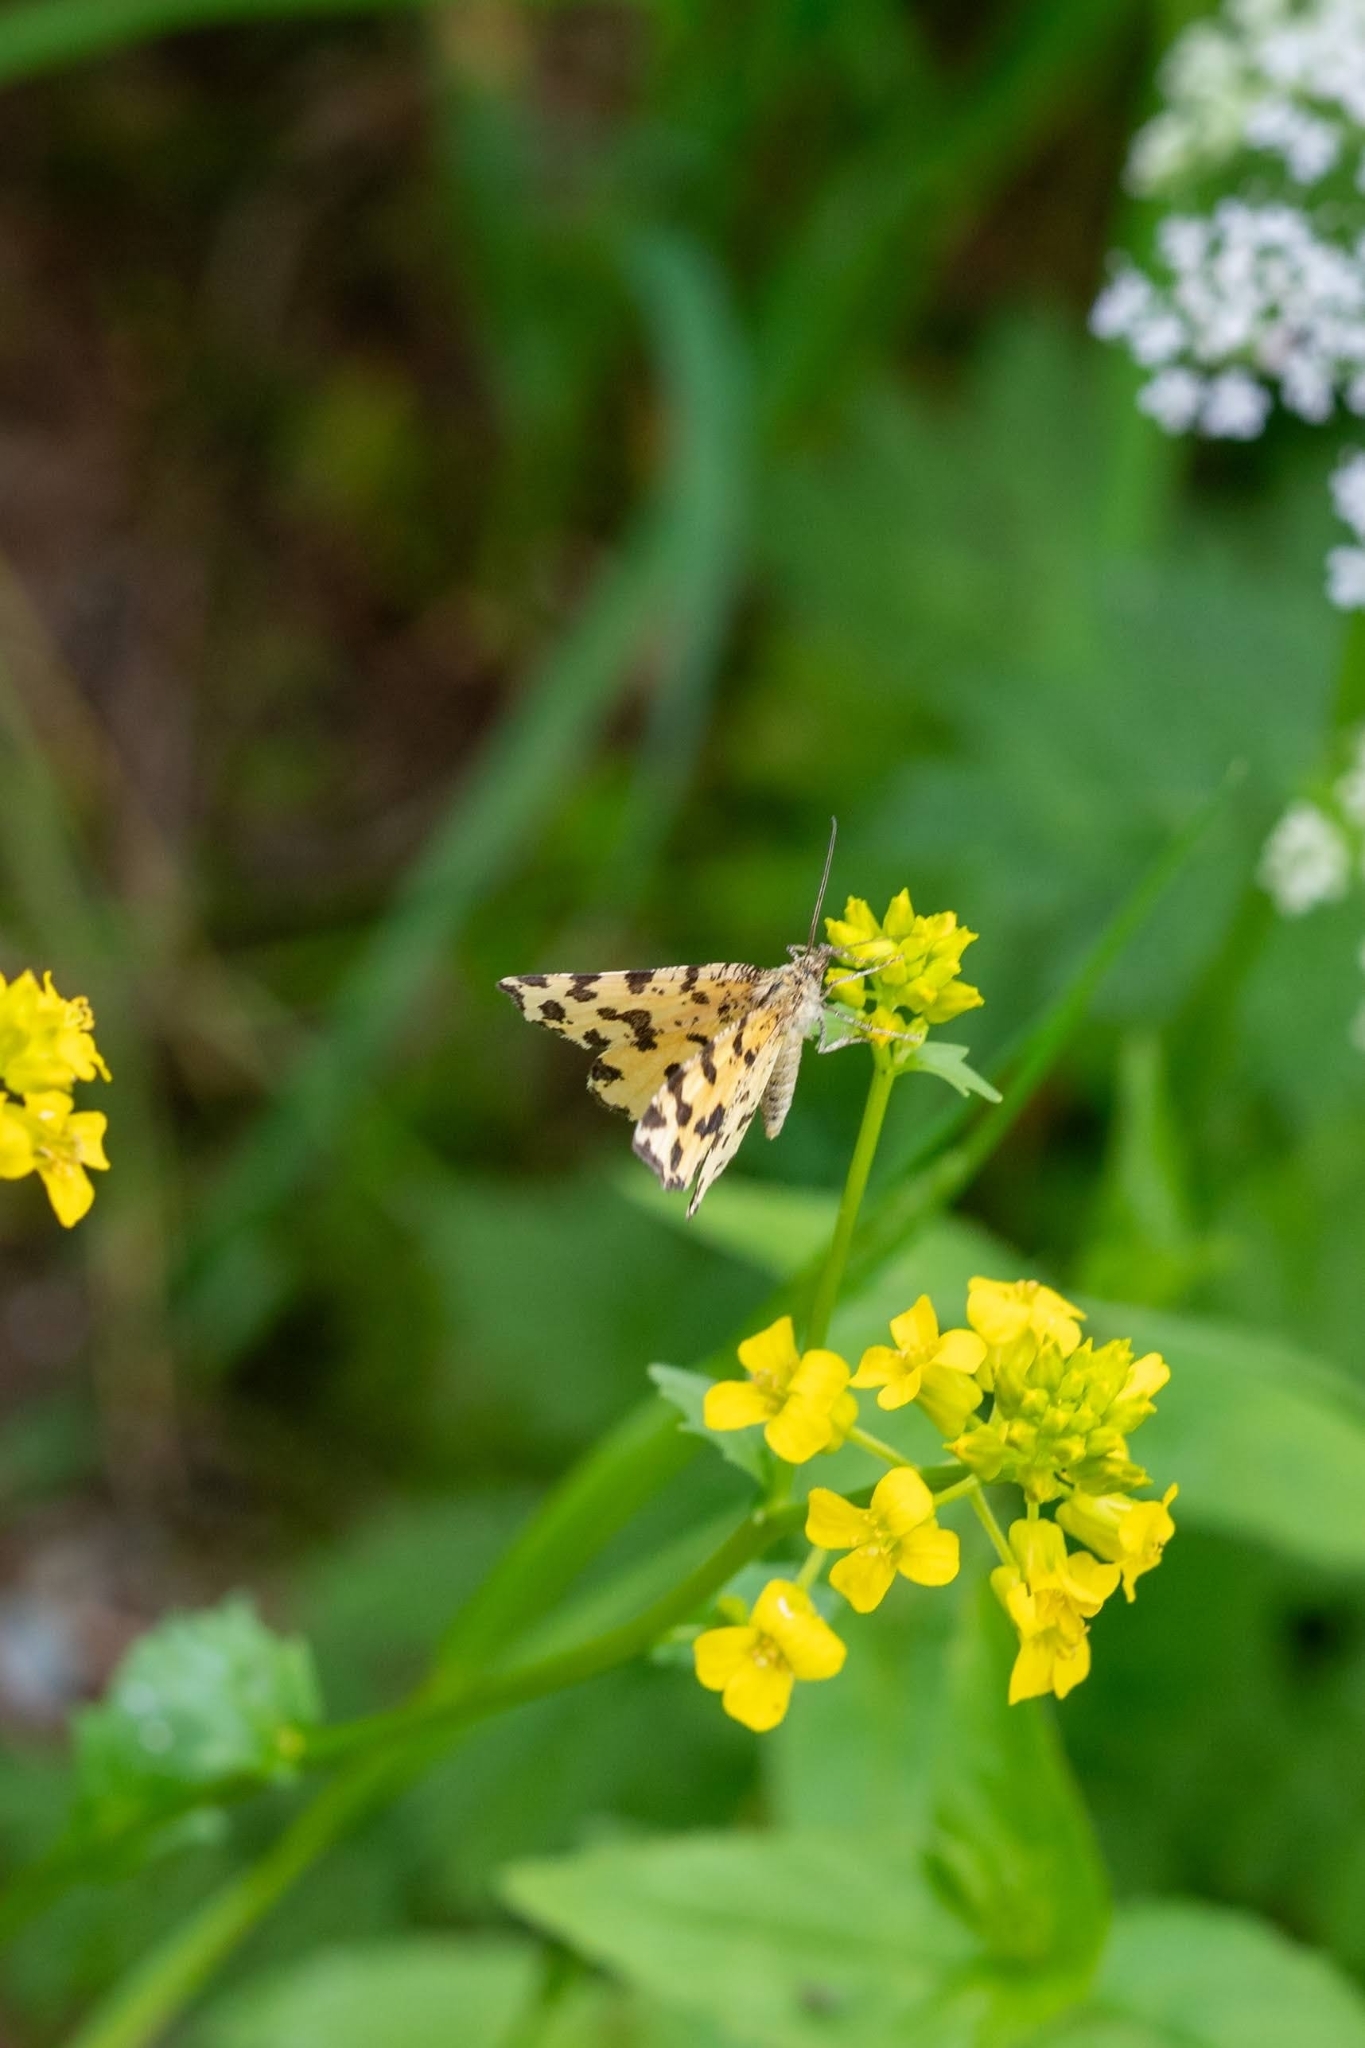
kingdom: Animalia
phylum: Arthropoda
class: Insecta
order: Lepidoptera
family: Geometridae
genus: Pseudopanthera
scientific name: Pseudopanthera macularia
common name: Speckled yellow
